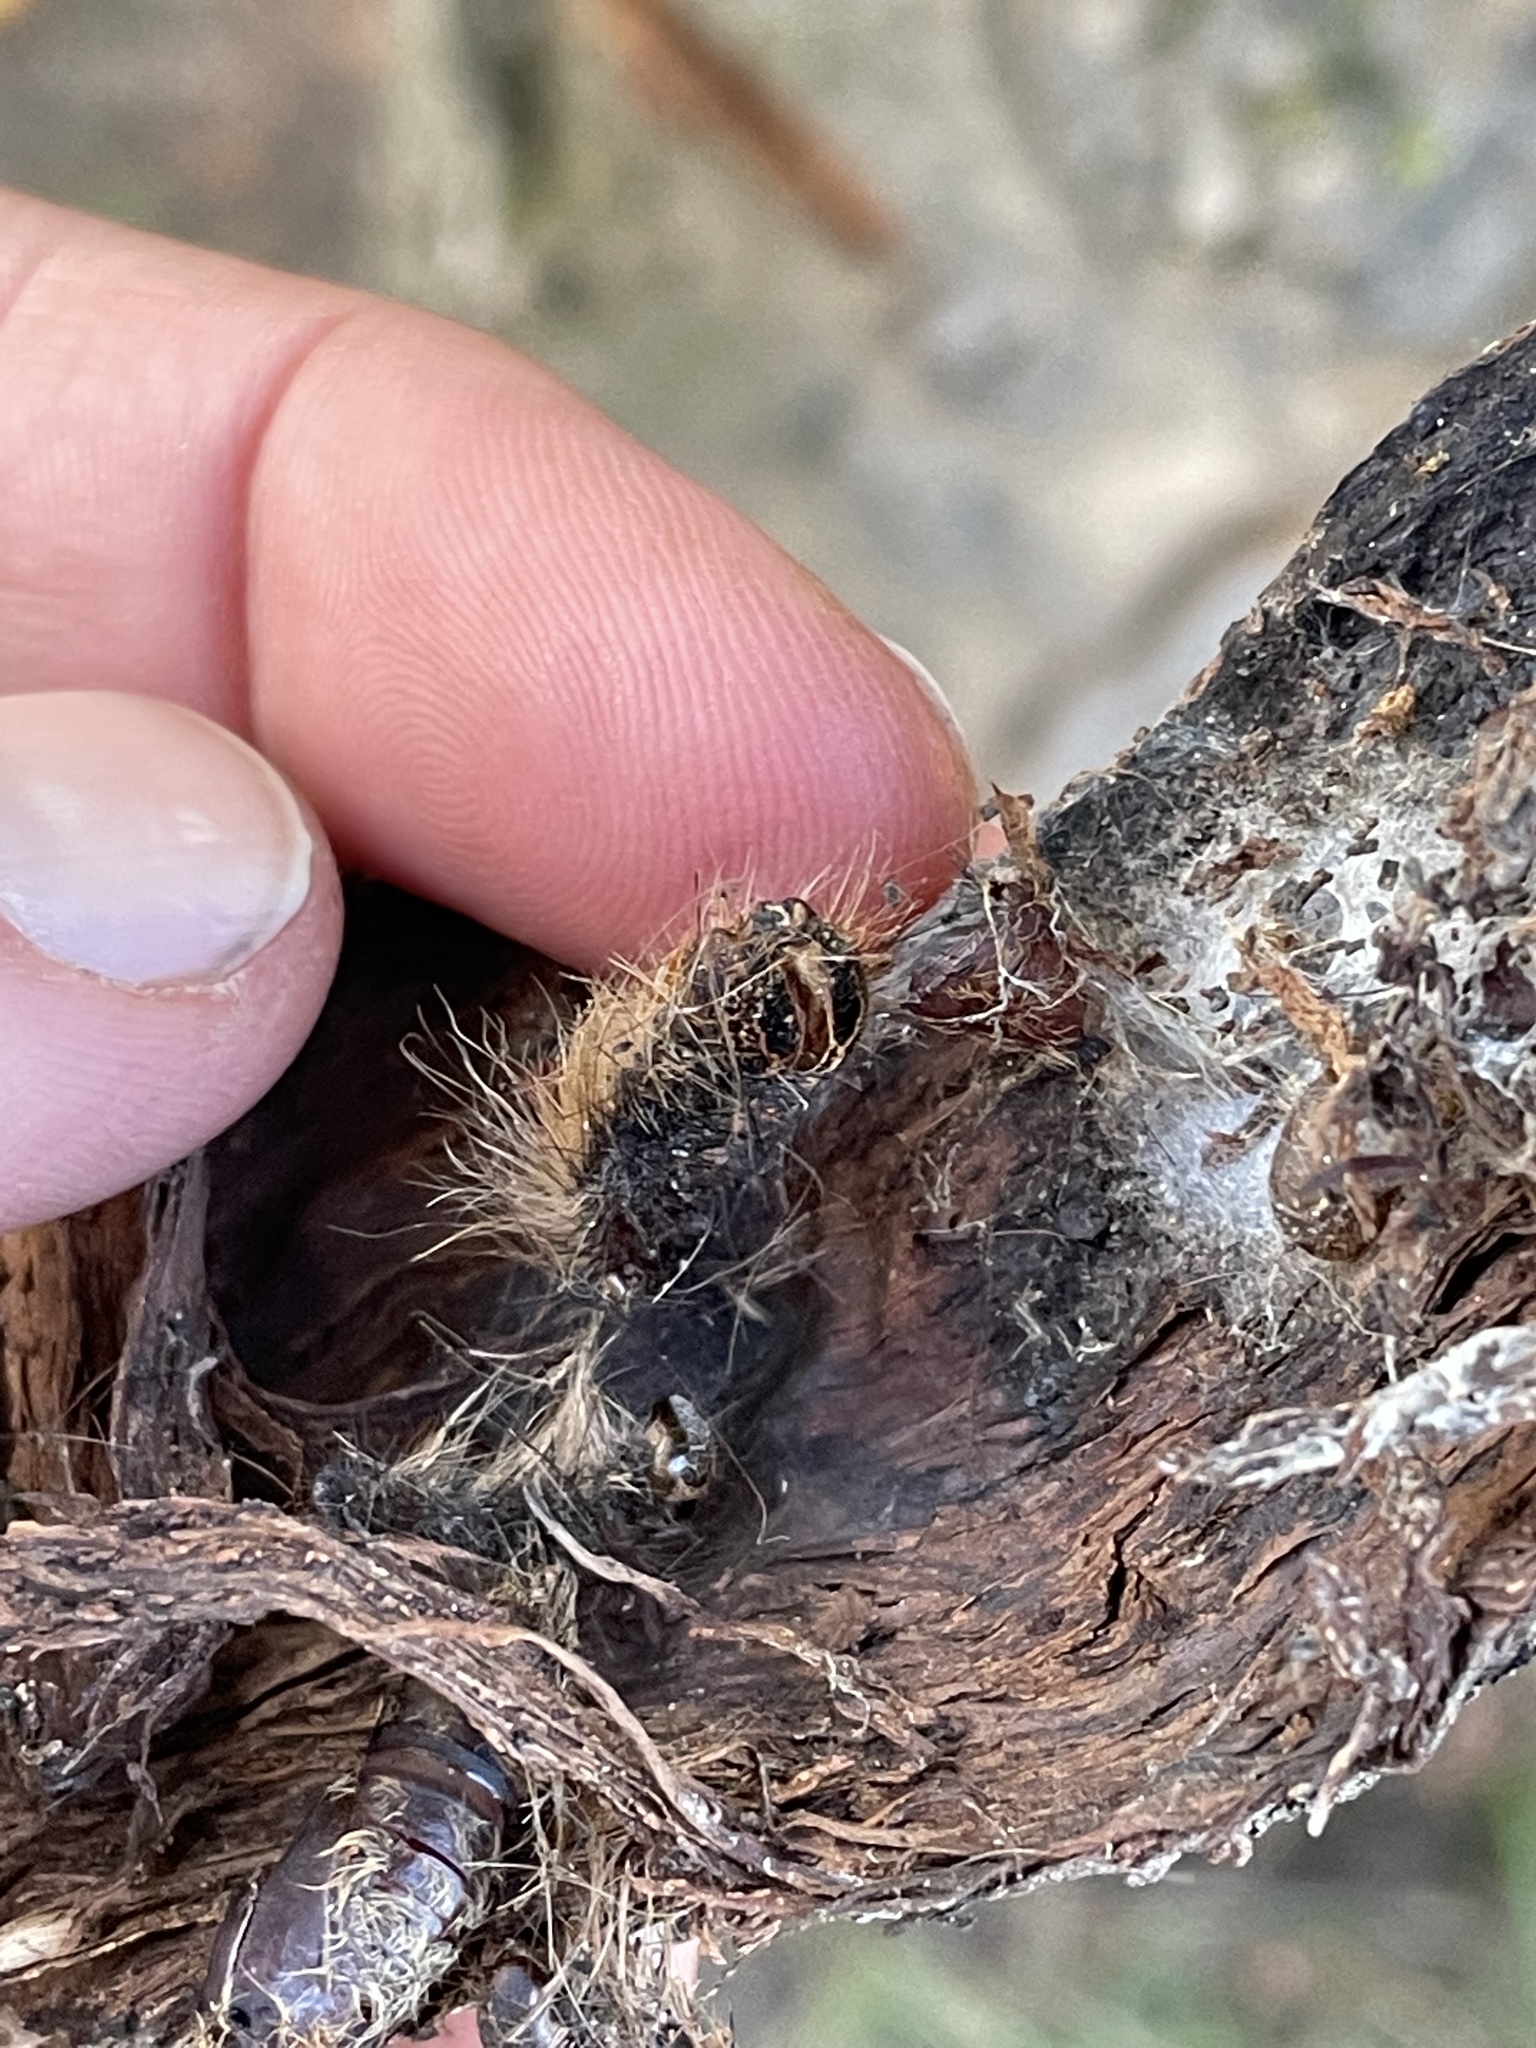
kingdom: Animalia
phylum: Arthropoda
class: Insecta
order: Lepidoptera
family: Erebidae
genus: Lymantria
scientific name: Lymantria dispar
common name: Gypsy moth
